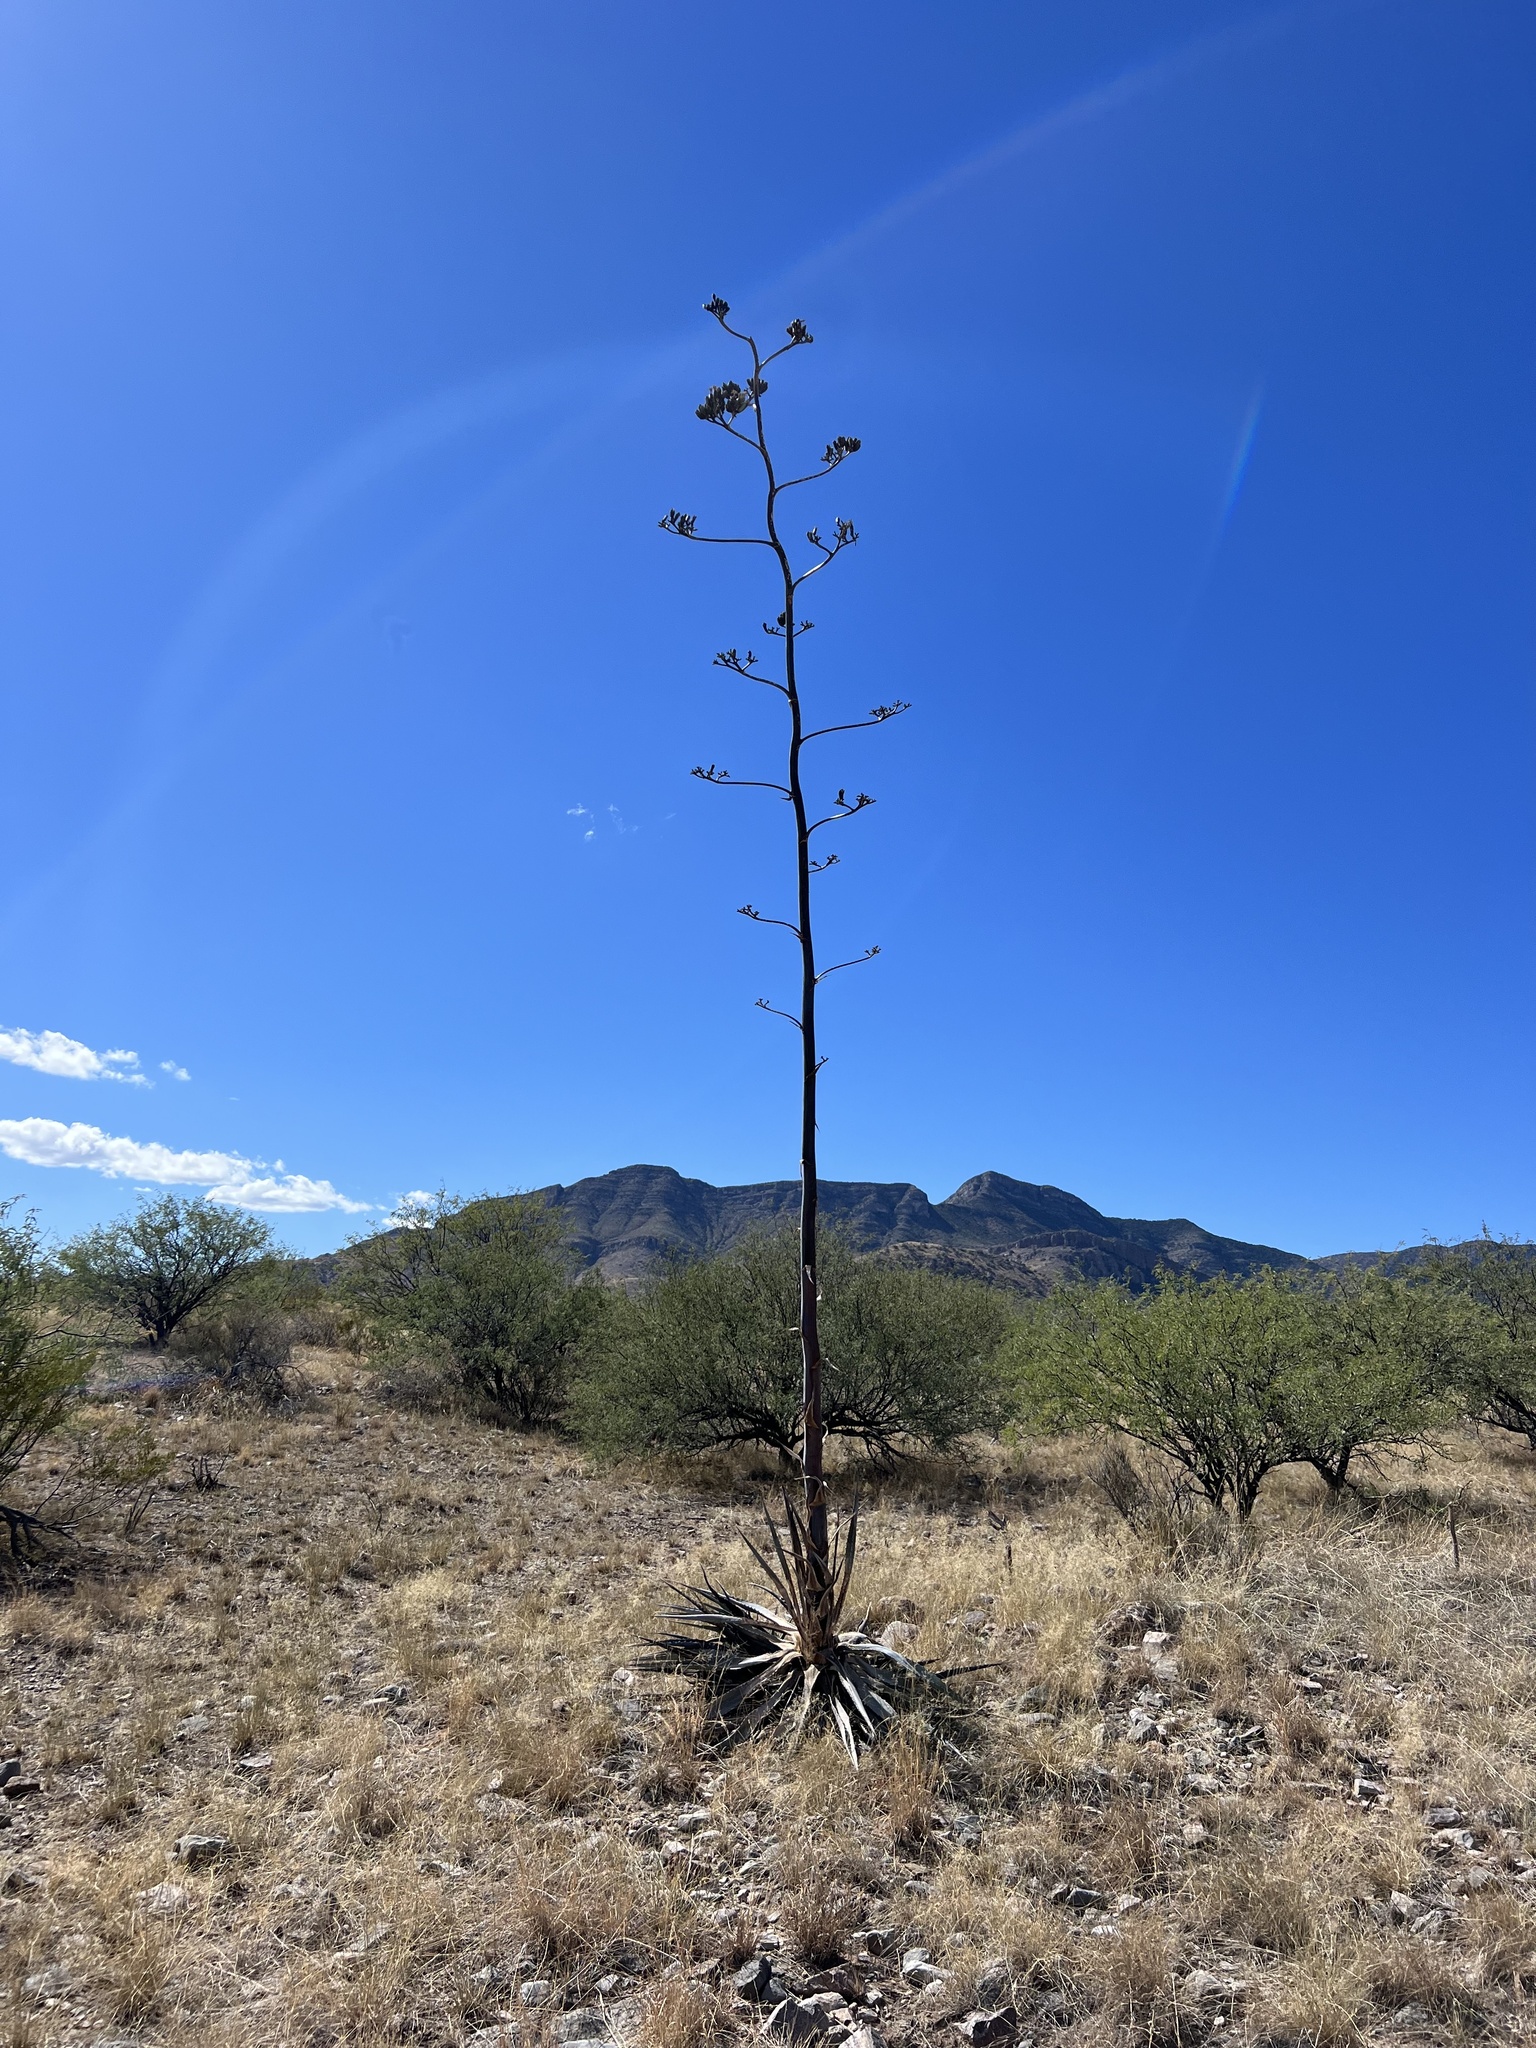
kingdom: Plantae
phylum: Tracheophyta
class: Liliopsida
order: Asparagales
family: Asparagaceae
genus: Agave
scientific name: Agave palmeri
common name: Palmer agave
